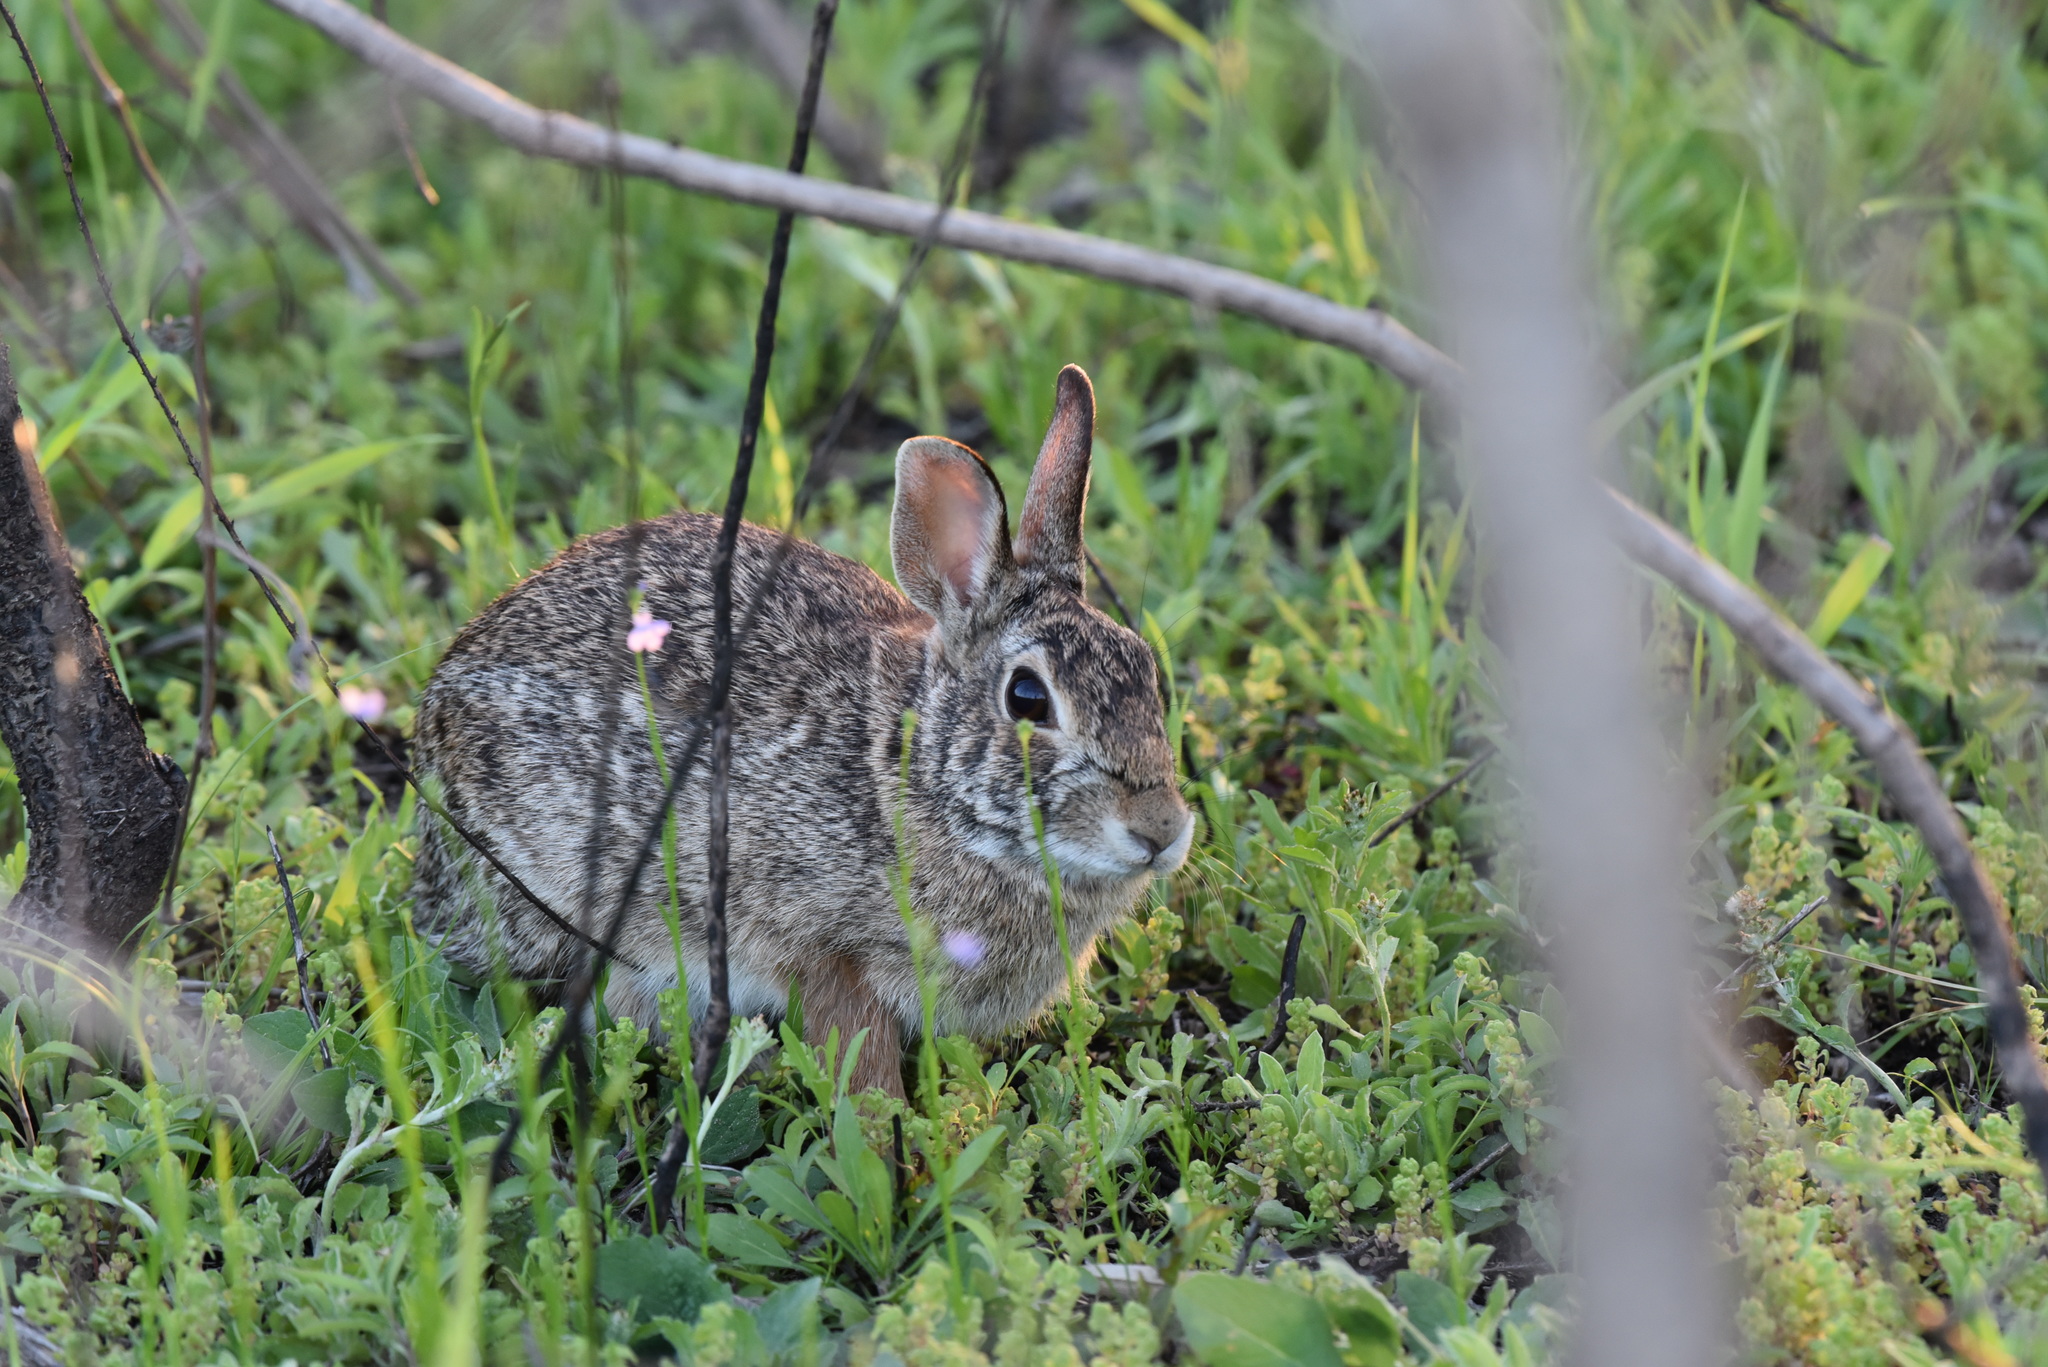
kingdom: Animalia
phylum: Chordata
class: Mammalia
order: Lagomorpha
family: Leporidae
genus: Sylvilagus
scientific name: Sylvilagus floridanus
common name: Eastern cottontail
